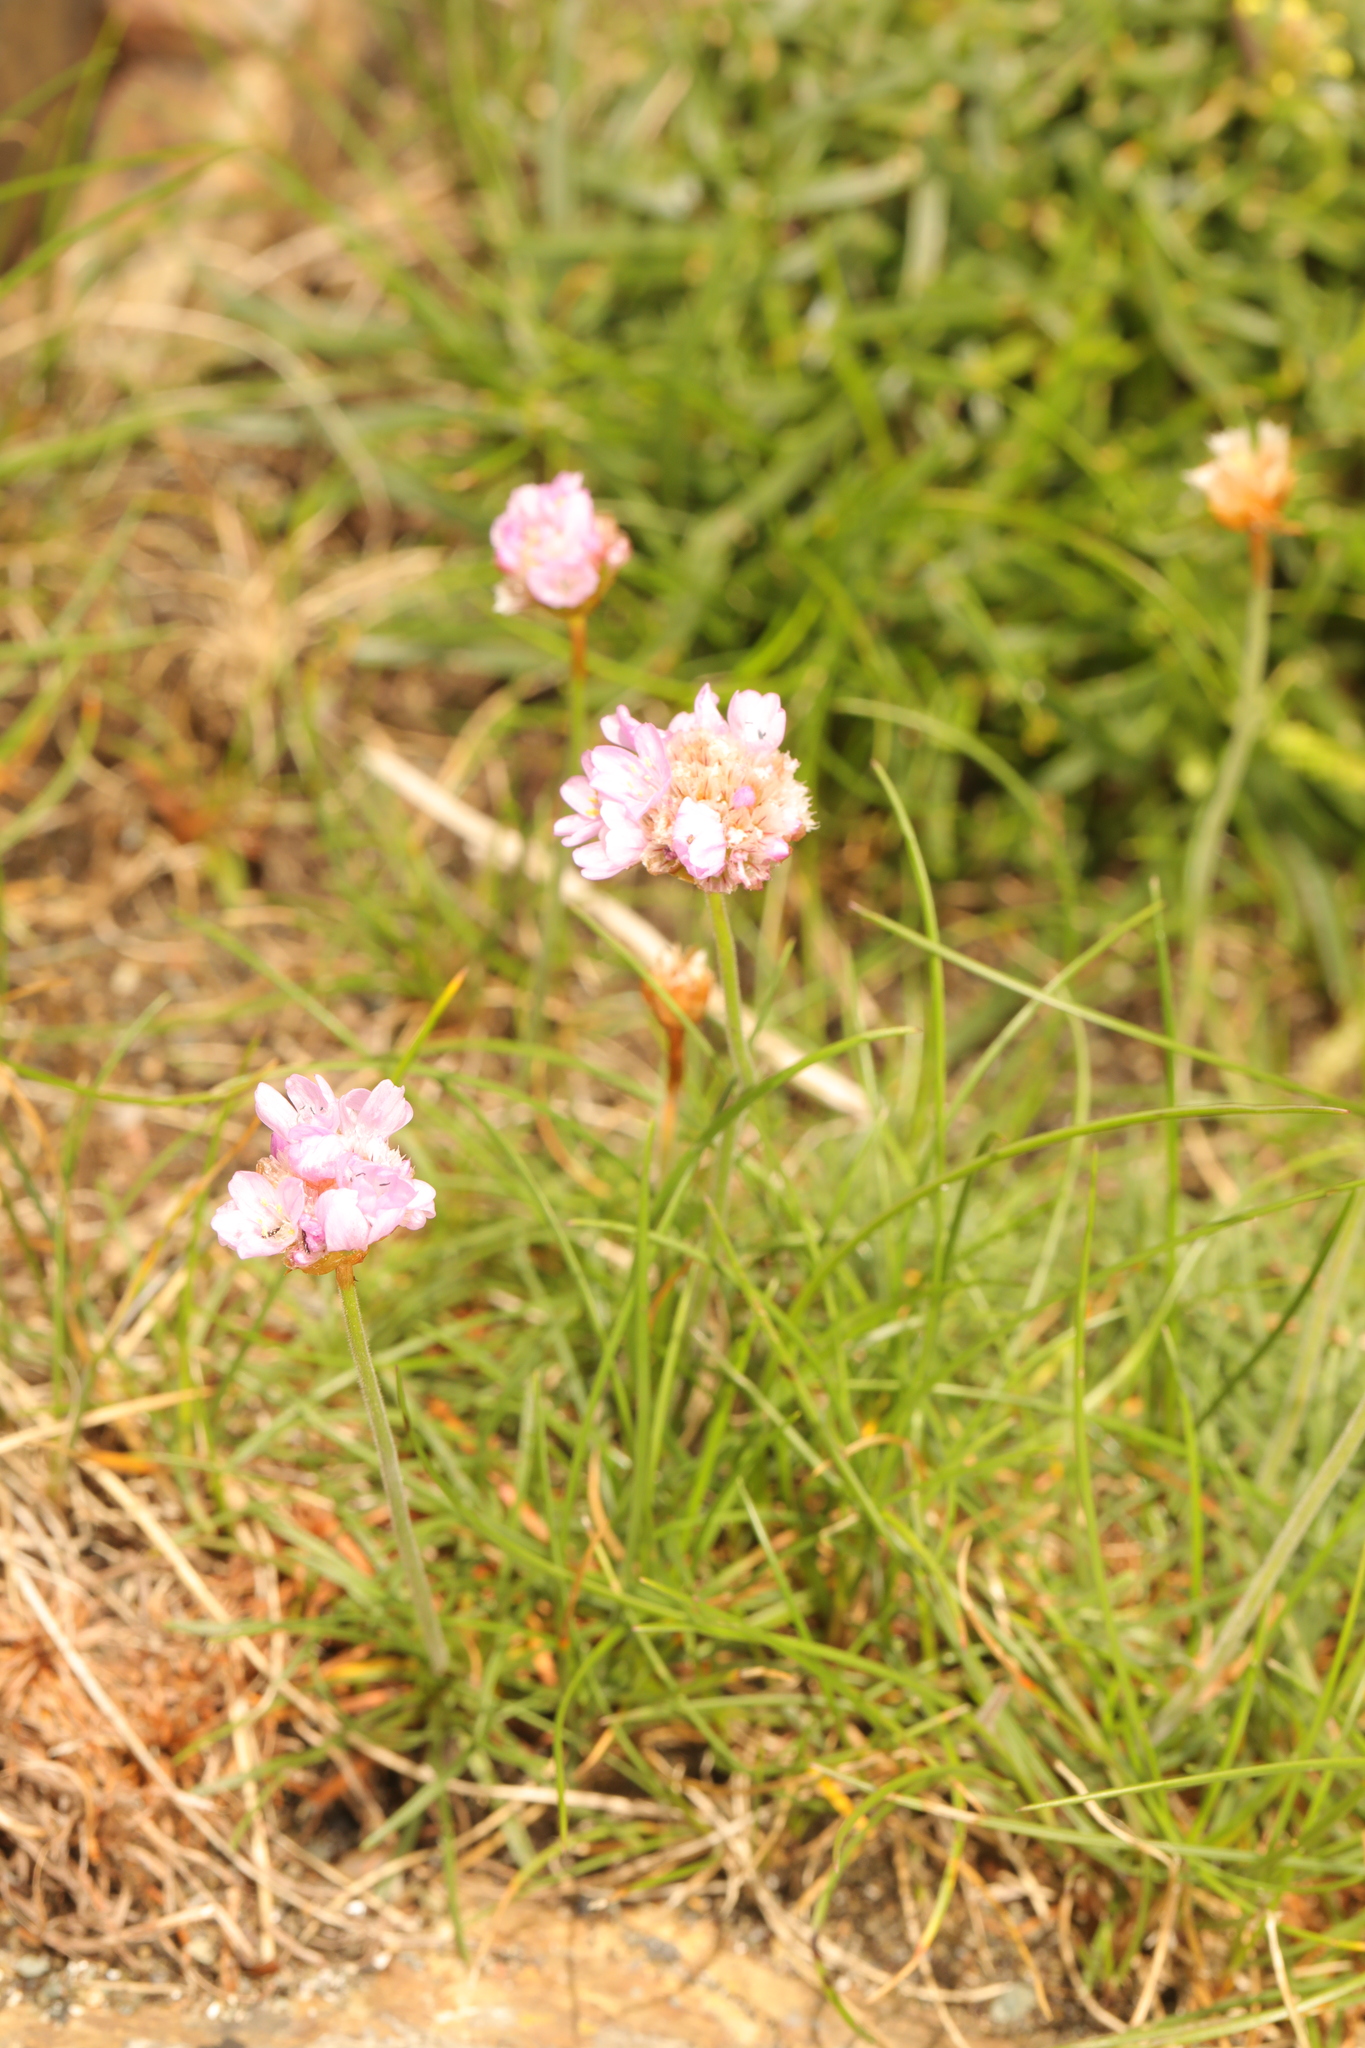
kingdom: Plantae
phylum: Tracheophyta
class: Magnoliopsida
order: Caryophyllales
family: Plumbaginaceae
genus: Armeria
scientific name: Armeria maritima
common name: Thrift
